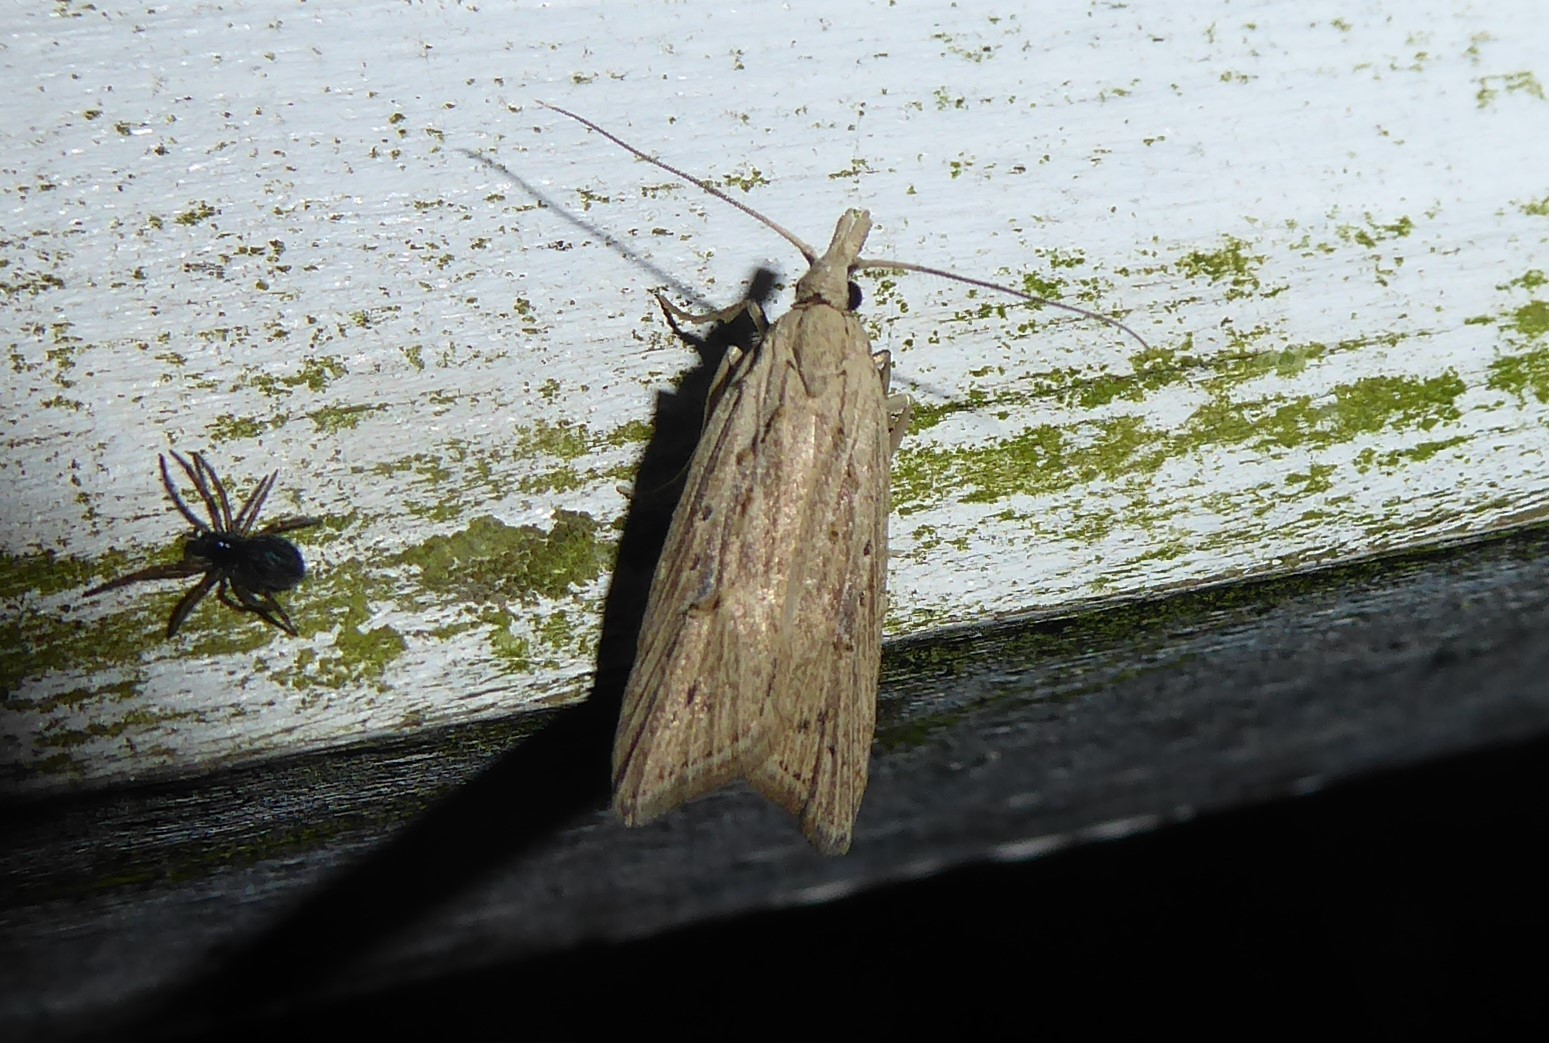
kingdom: Animalia
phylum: Arthropoda
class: Insecta
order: Lepidoptera
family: Carposinidae
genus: Carposina
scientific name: Carposina Heterocrossa exochana
